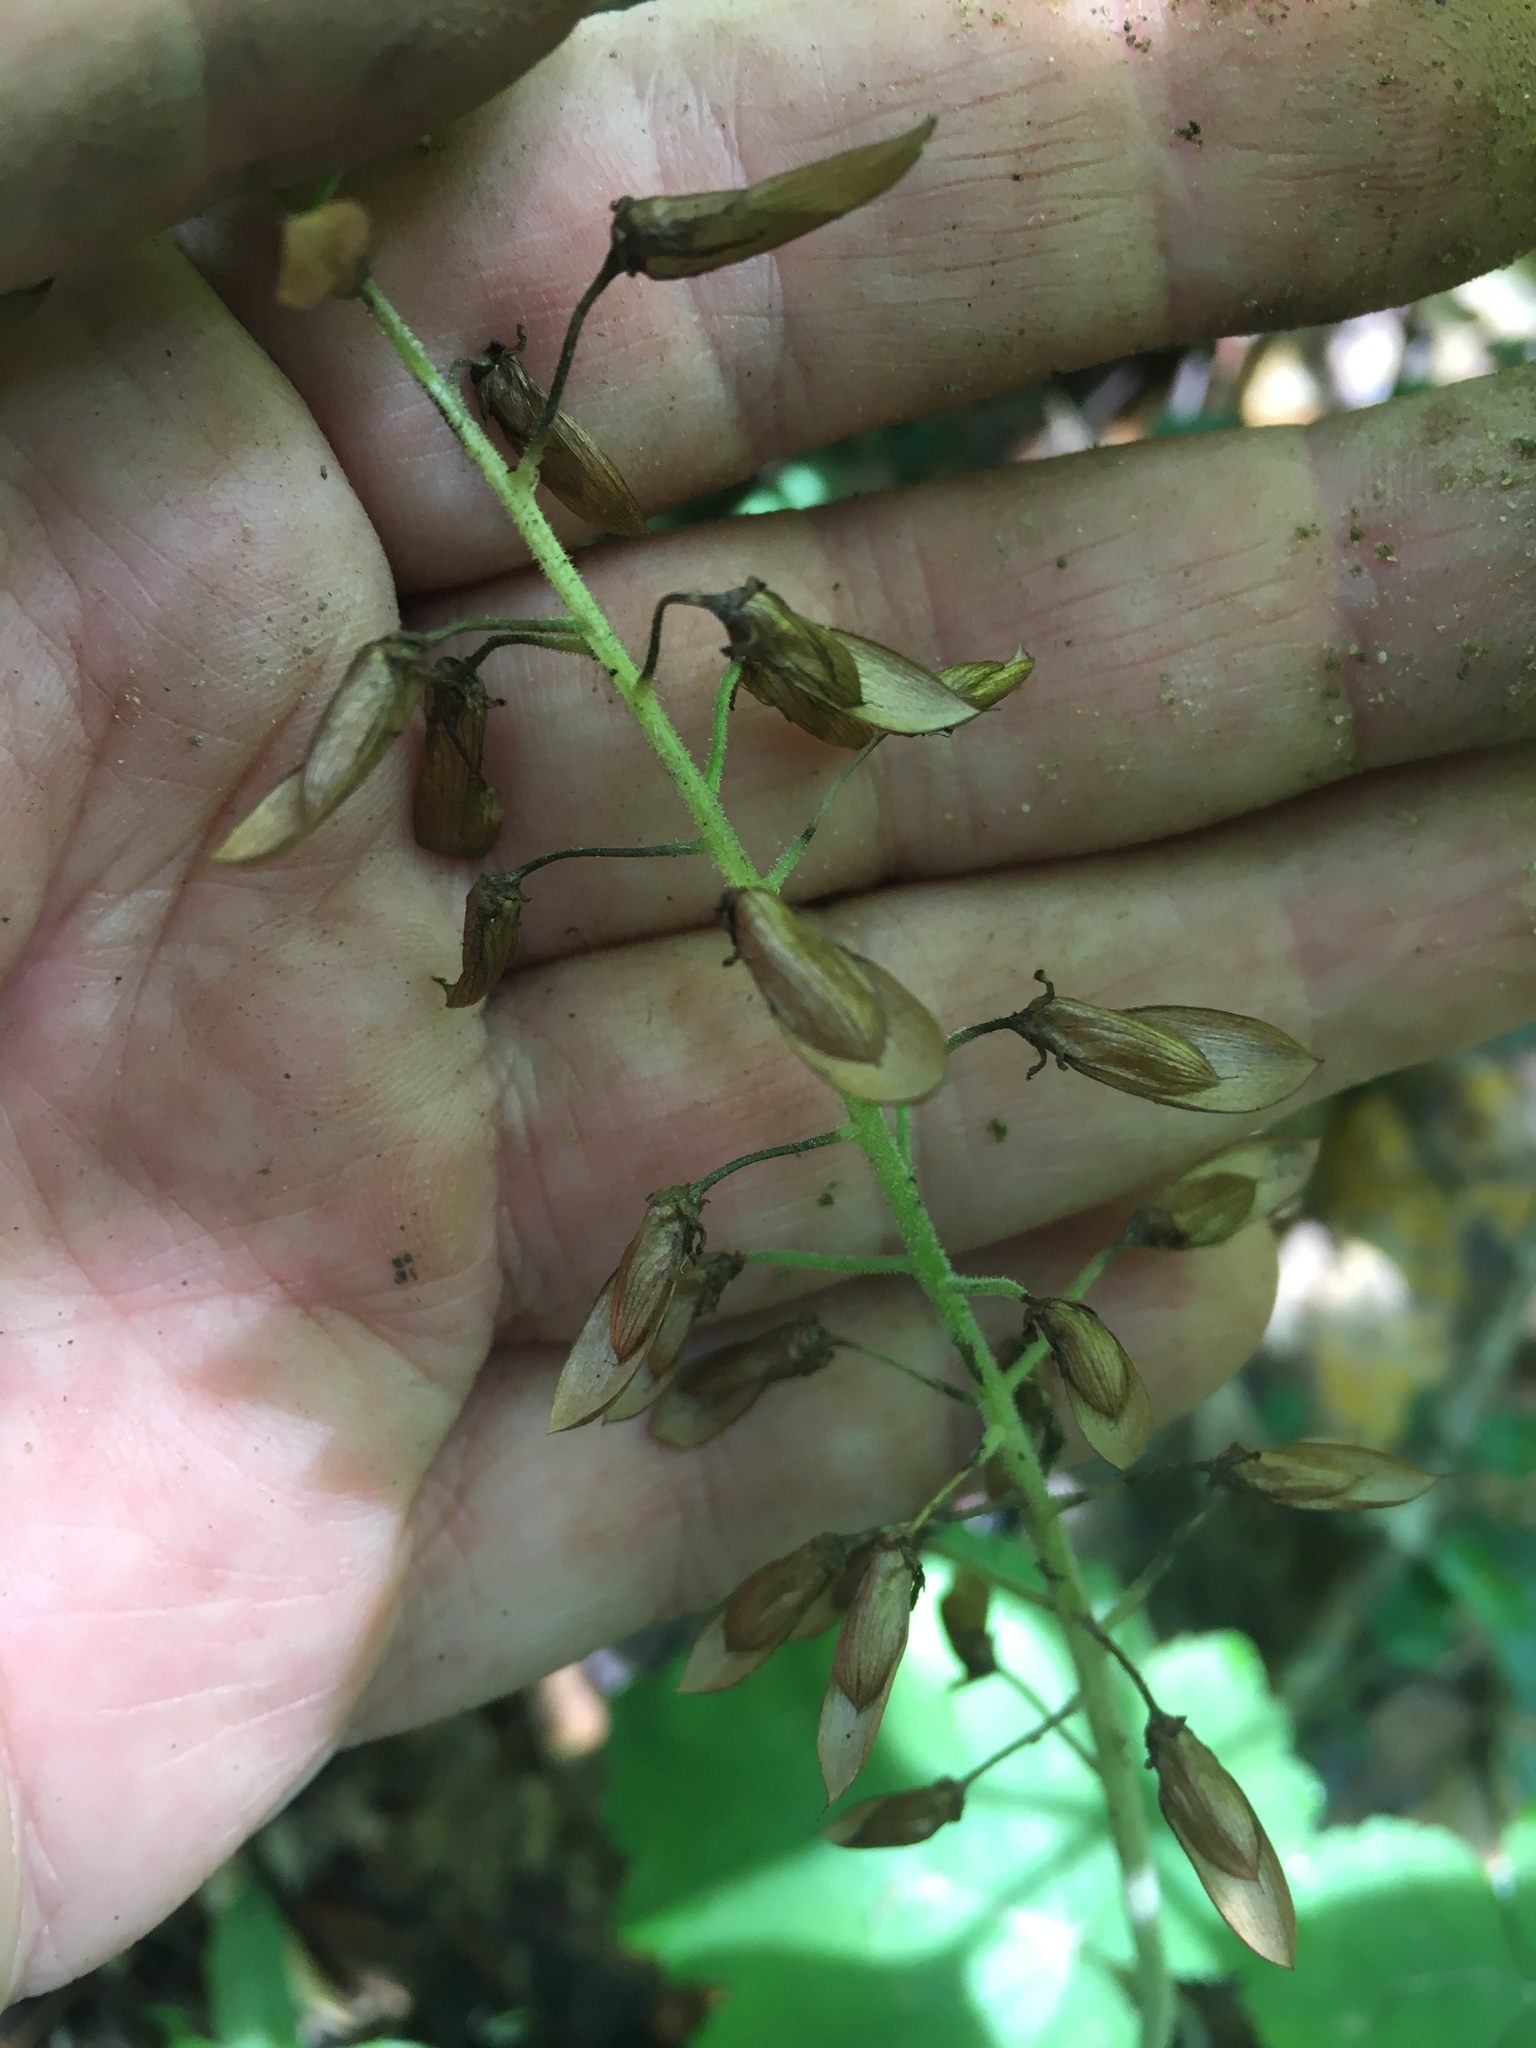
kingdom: Plantae
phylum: Tracheophyta
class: Magnoliopsida
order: Saxifragales
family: Saxifragaceae
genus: Tiarella
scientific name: Tiarella stolonifera
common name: Stoloniferous foamflower
